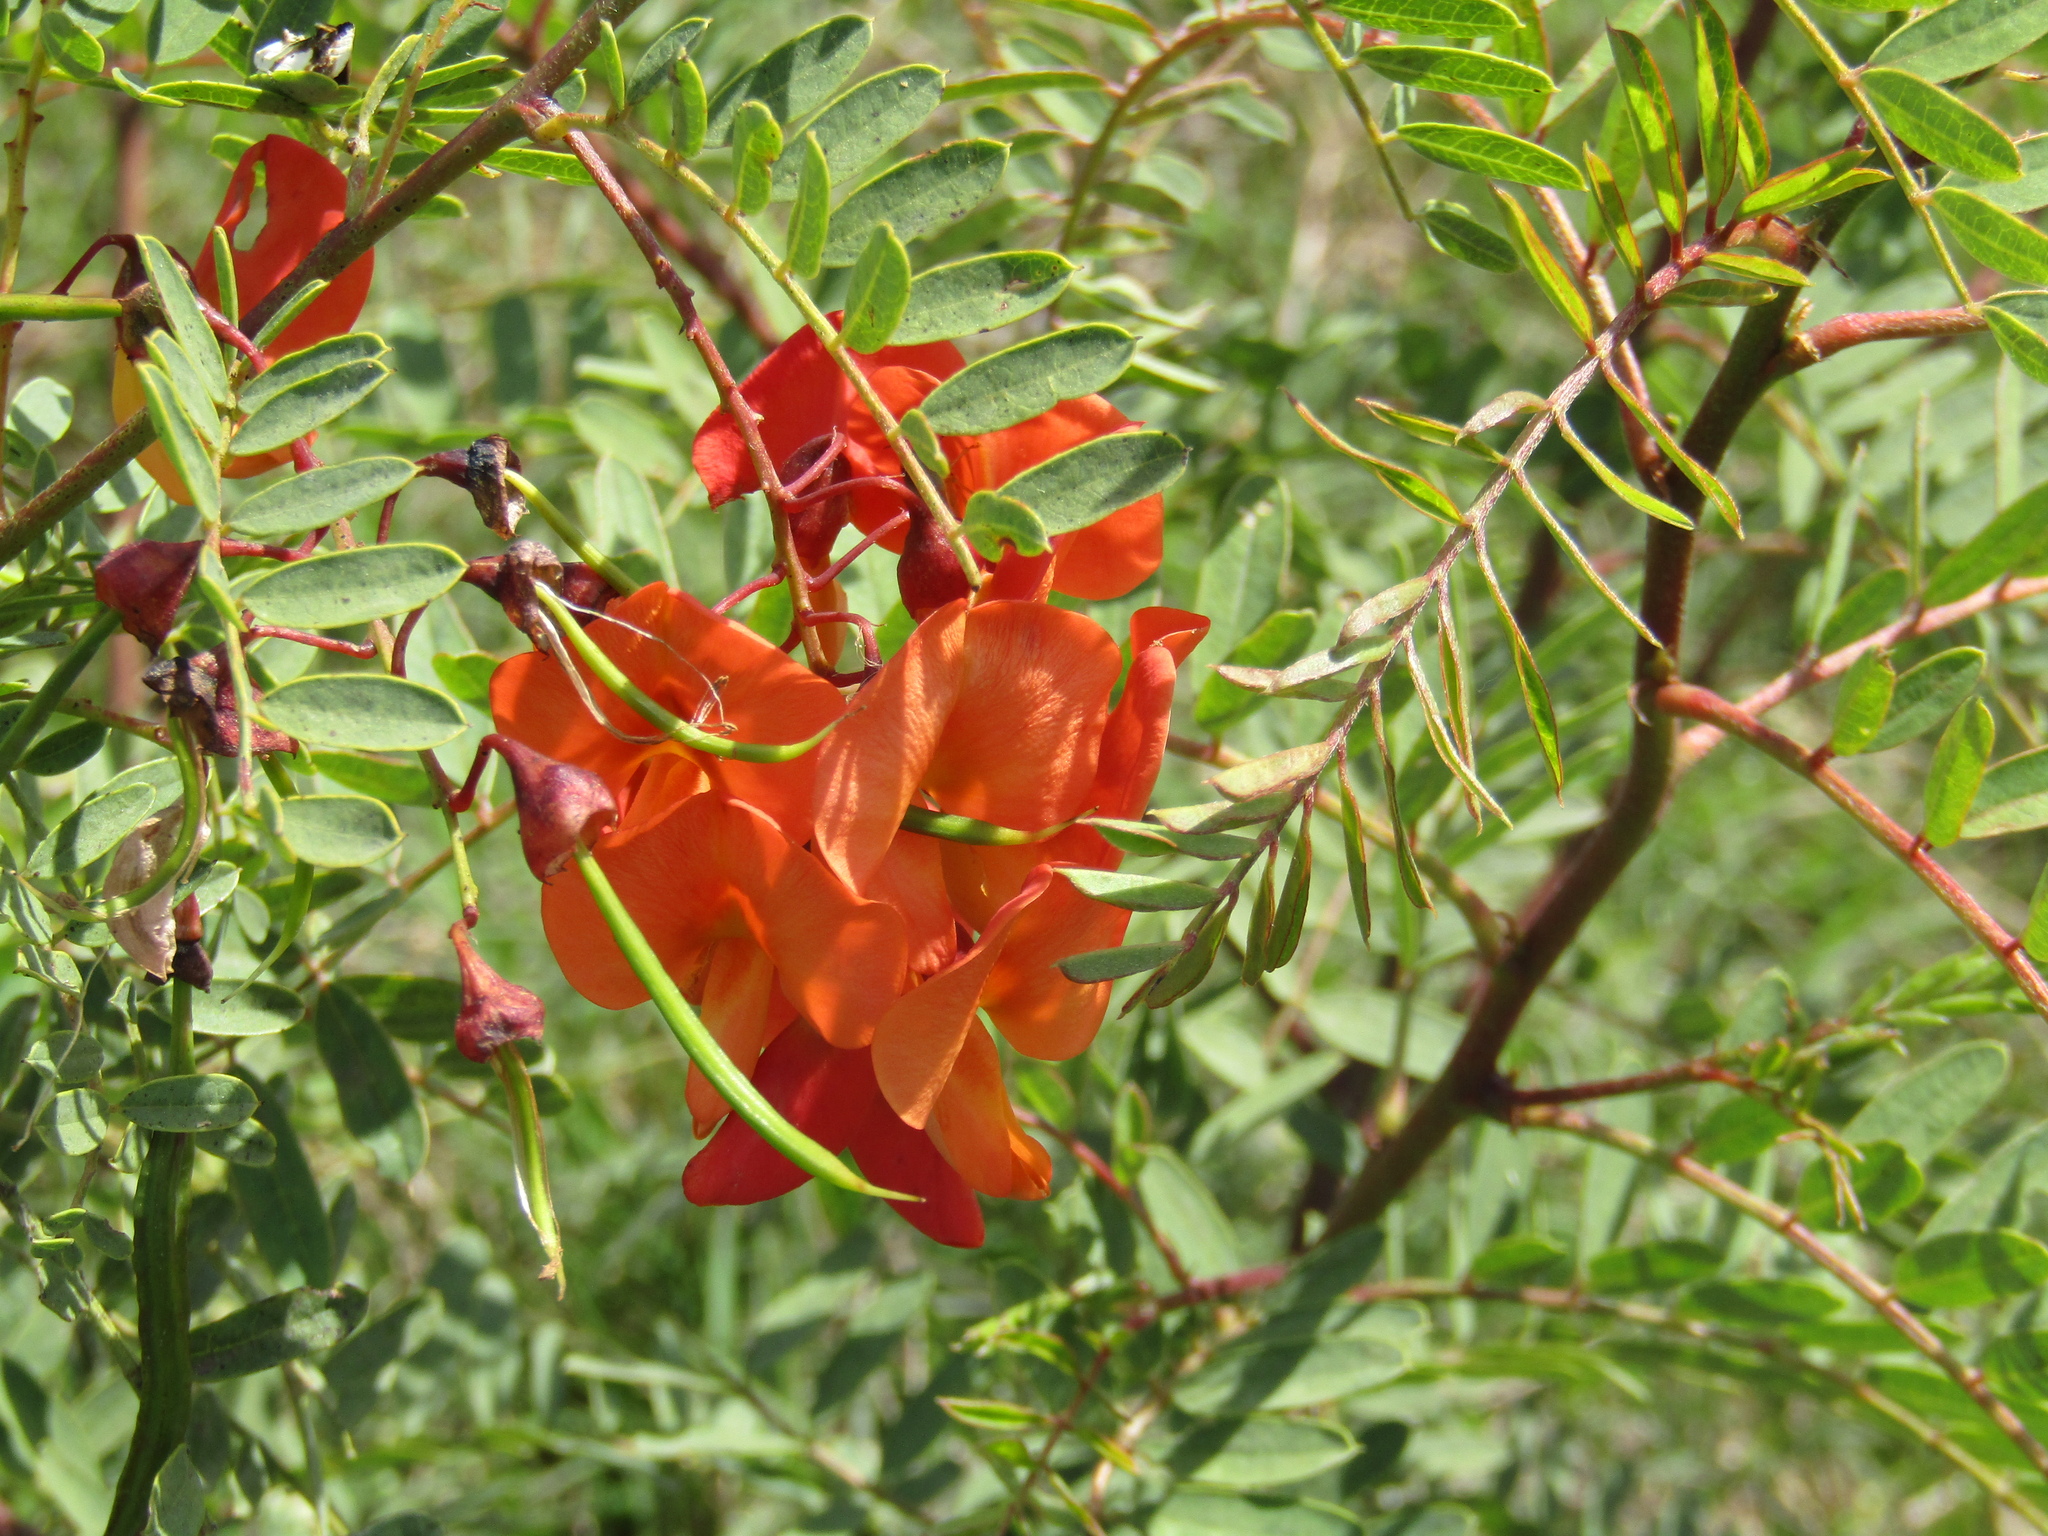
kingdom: Plantae
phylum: Tracheophyta
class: Magnoliopsida
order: Fabales
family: Fabaceae
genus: Sesbania
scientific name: Sesbania punicea
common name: Rattlebox
